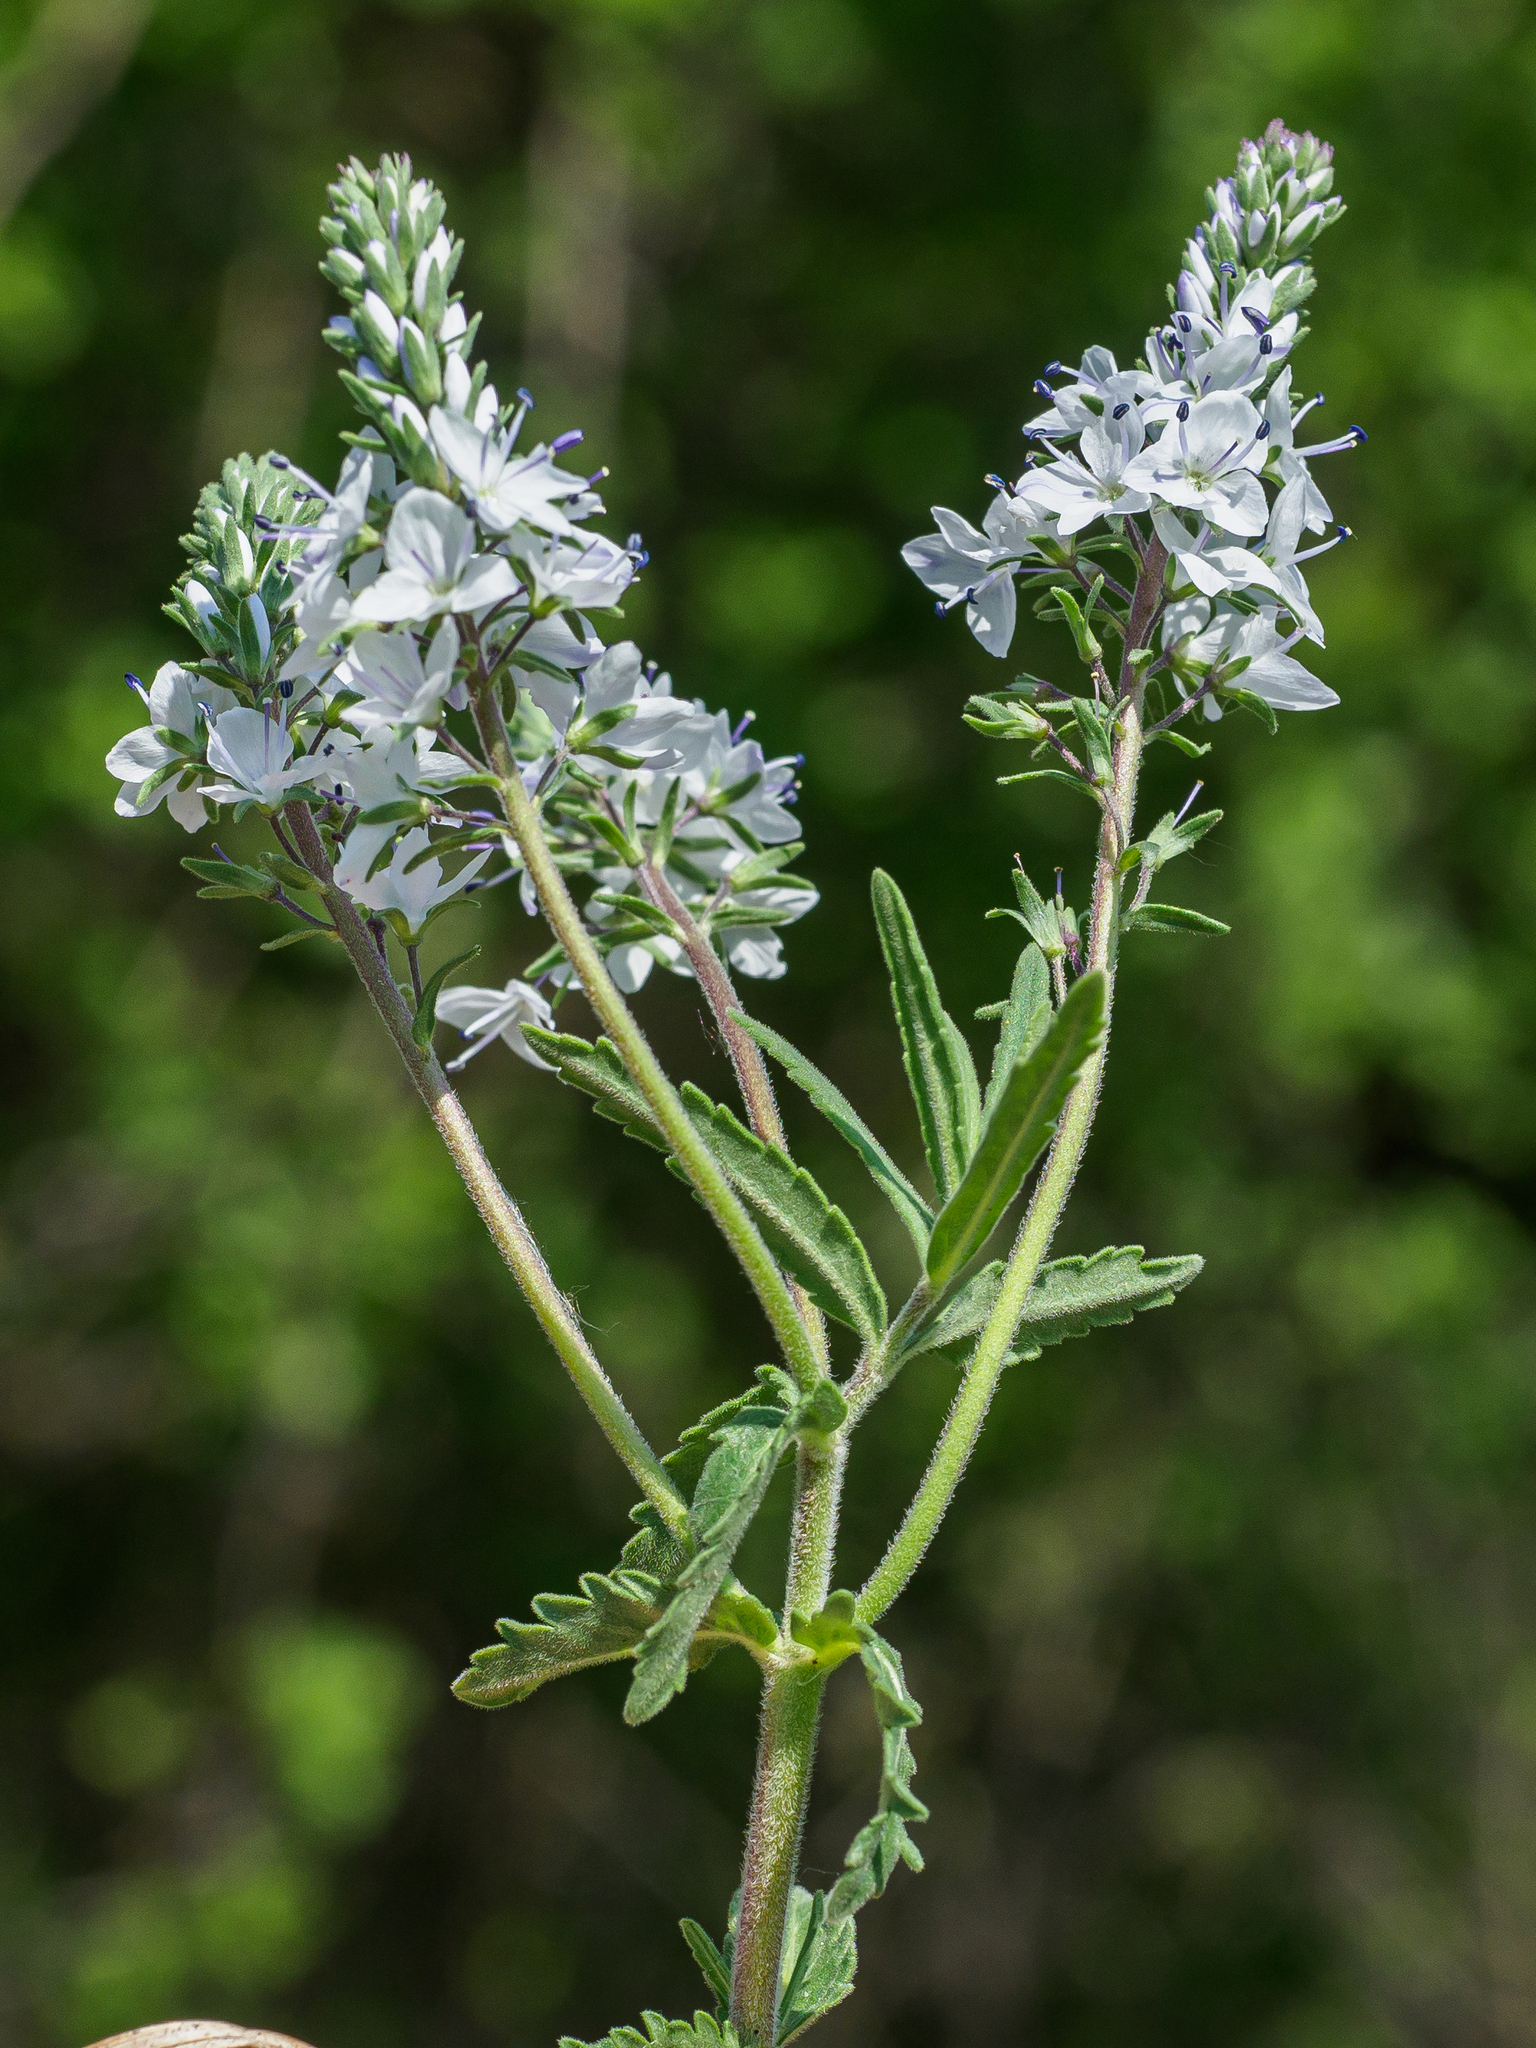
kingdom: Plantae
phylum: Tracheophyta
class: Magnoliopsida
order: Lamiales
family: Plantaginaceae
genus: Veronica
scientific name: Veronica prostrata
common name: Prostrate speedwell
